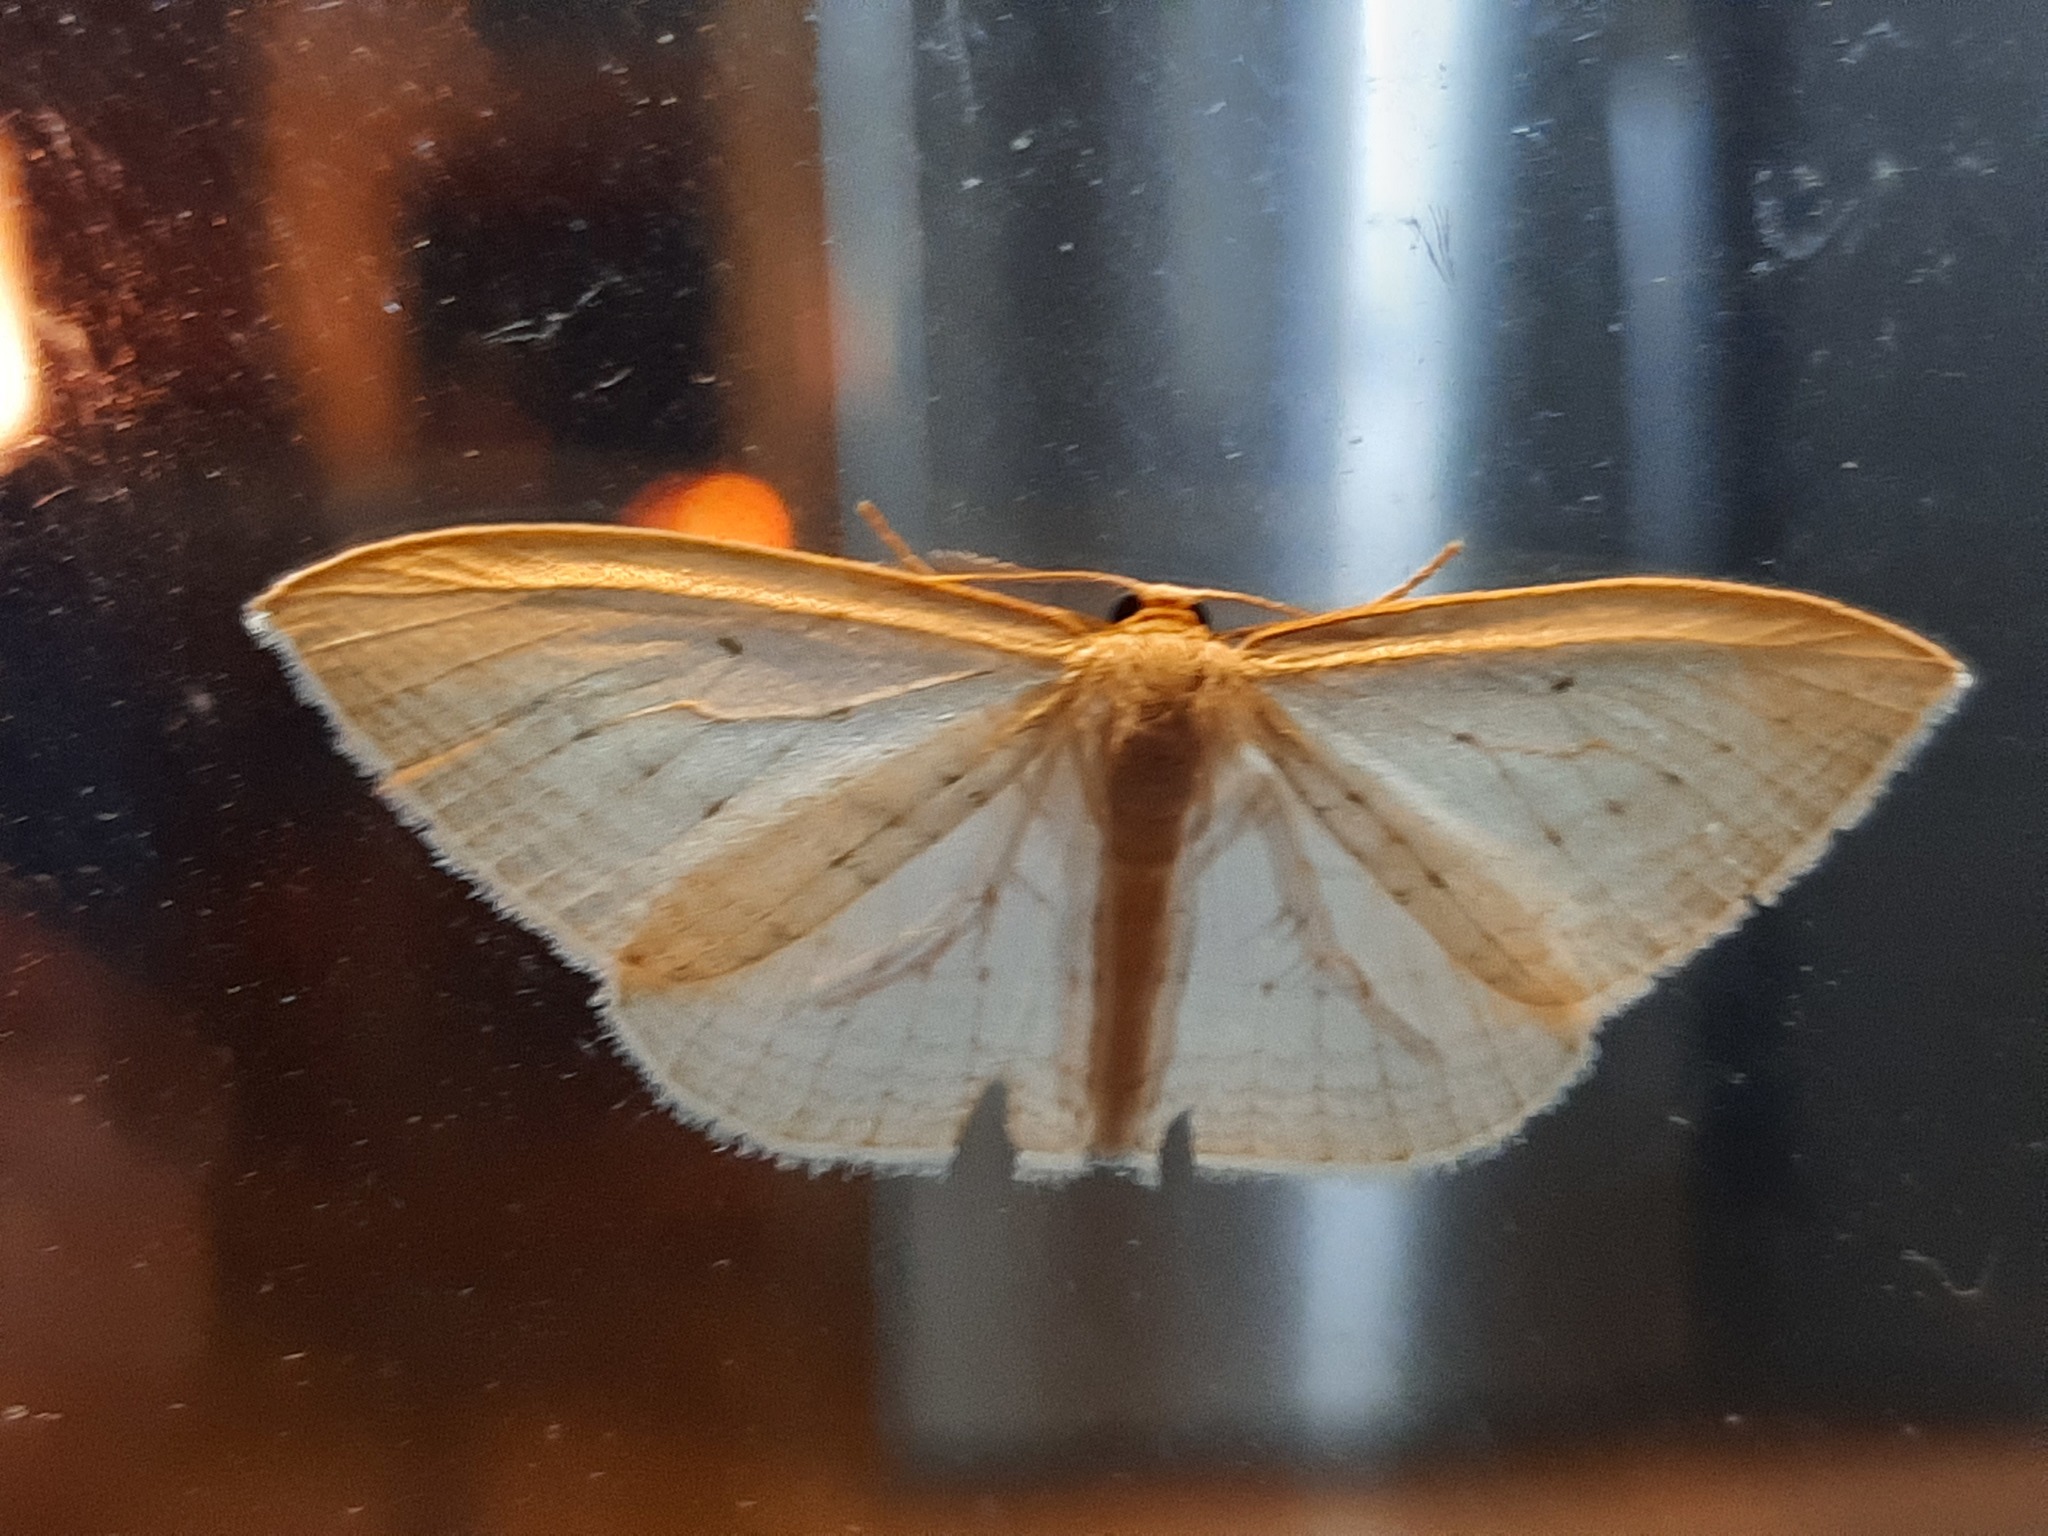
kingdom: Animalia
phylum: Arthropoda
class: Insecta
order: Lepidoptera
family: Geometridae
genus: Orthoclydon
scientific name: Orthoclydon praefectata
